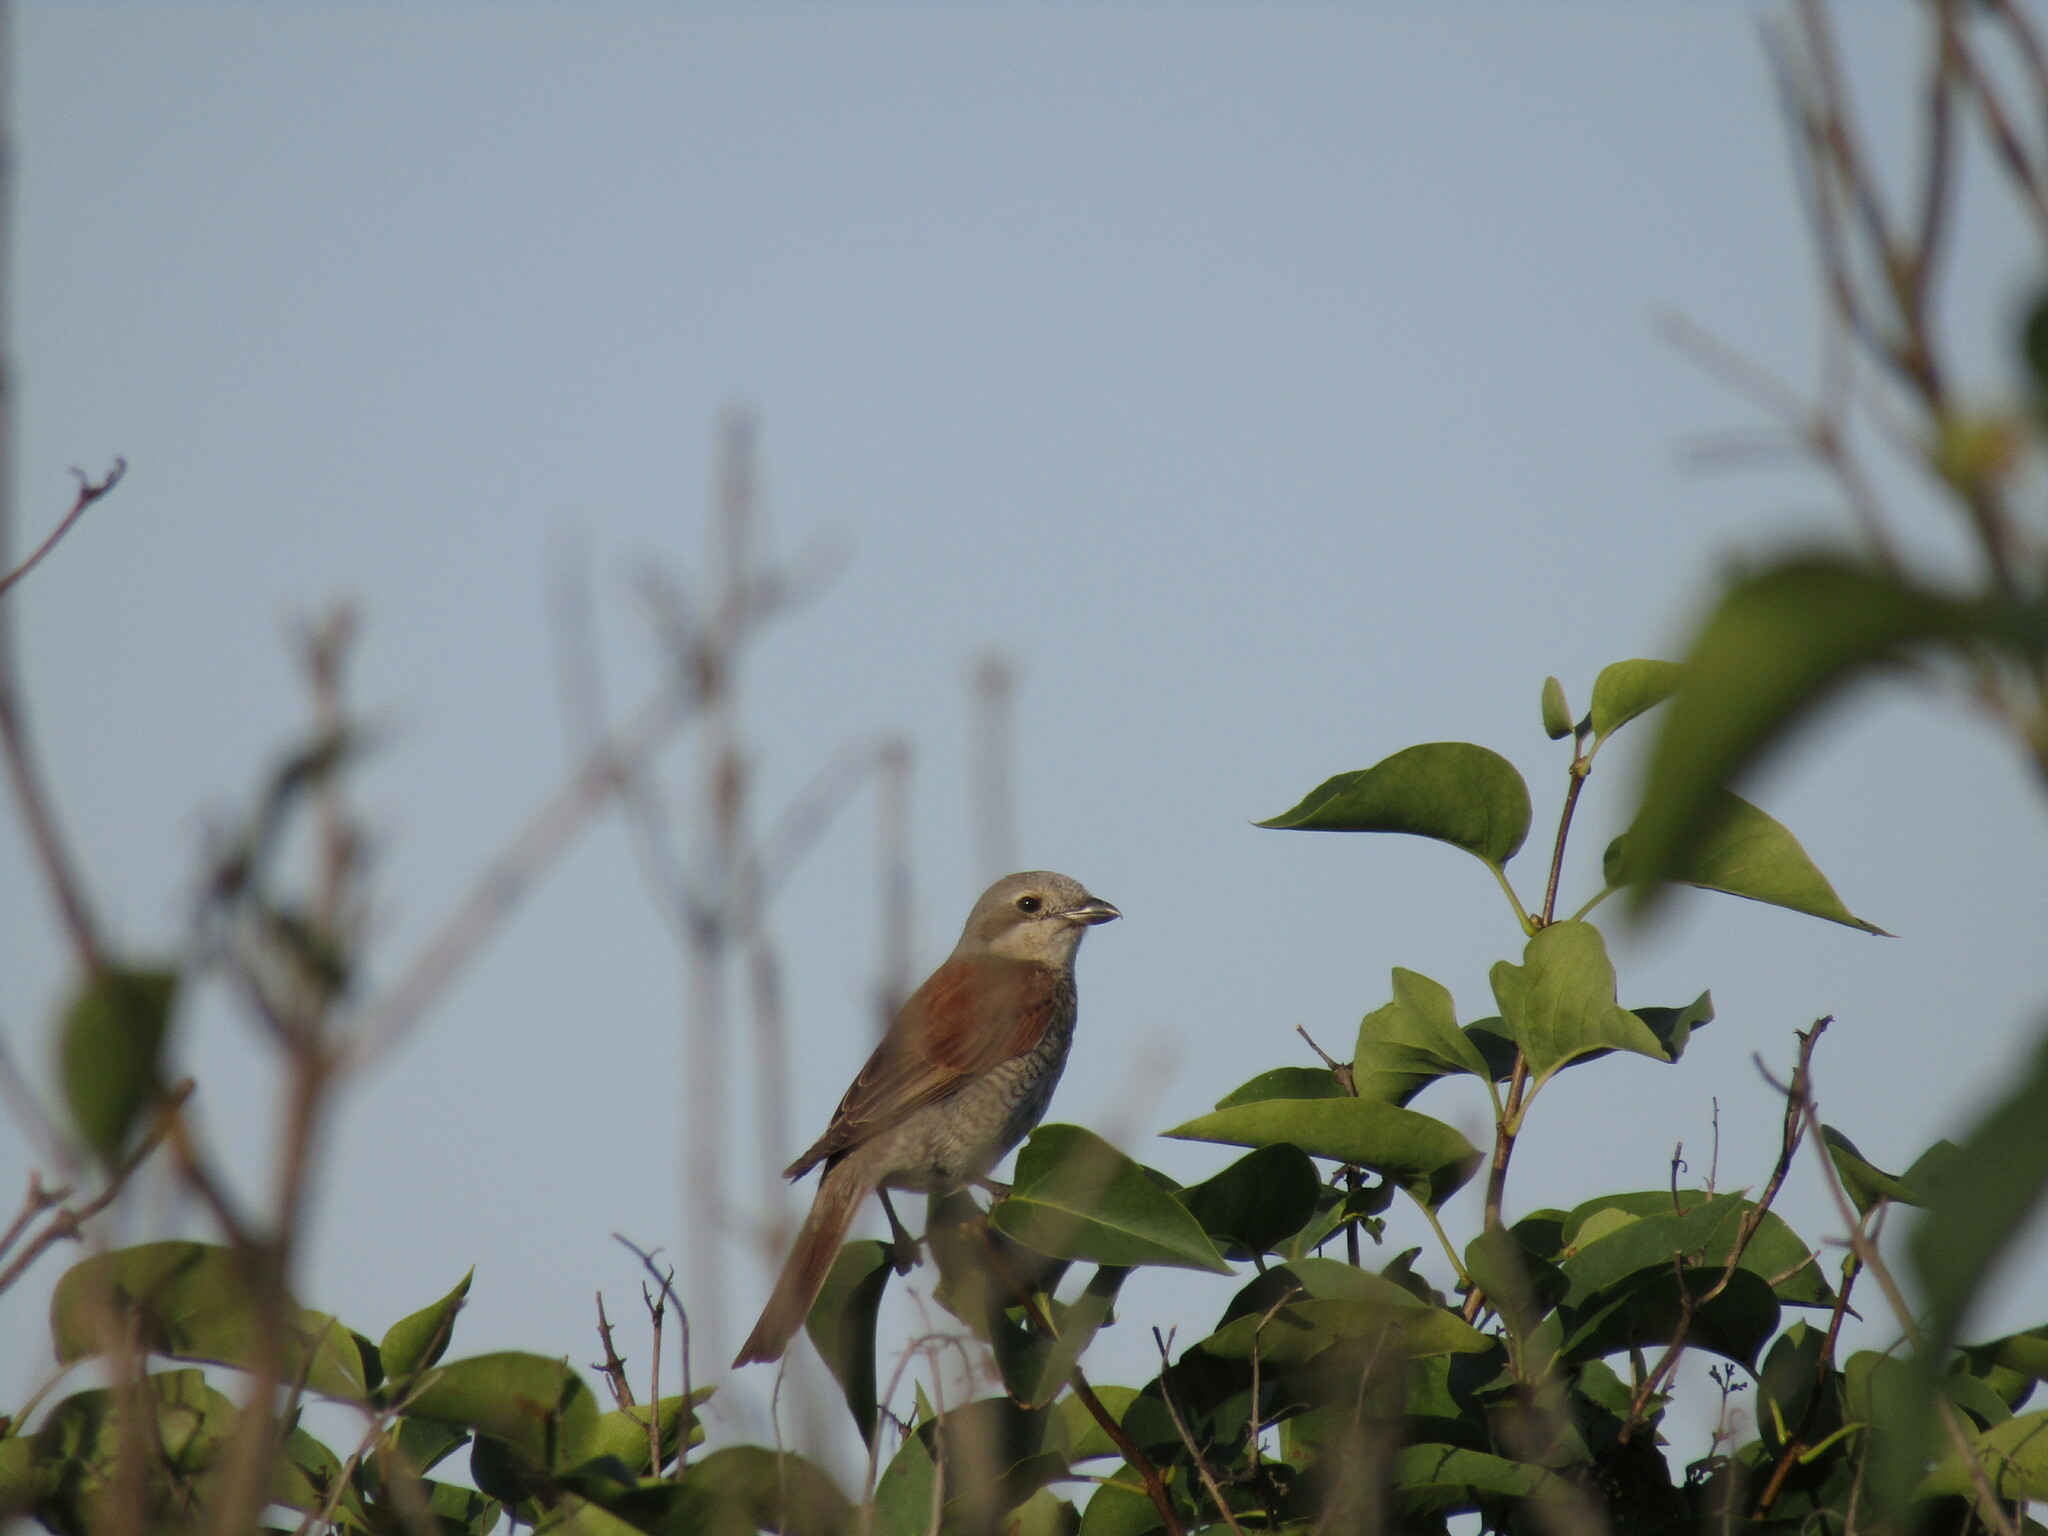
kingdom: Animalia
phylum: Chordata
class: Aves
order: Passeriformes
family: Laniidae
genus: Lanius
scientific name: Lanius collurio
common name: Red-backed shrike
